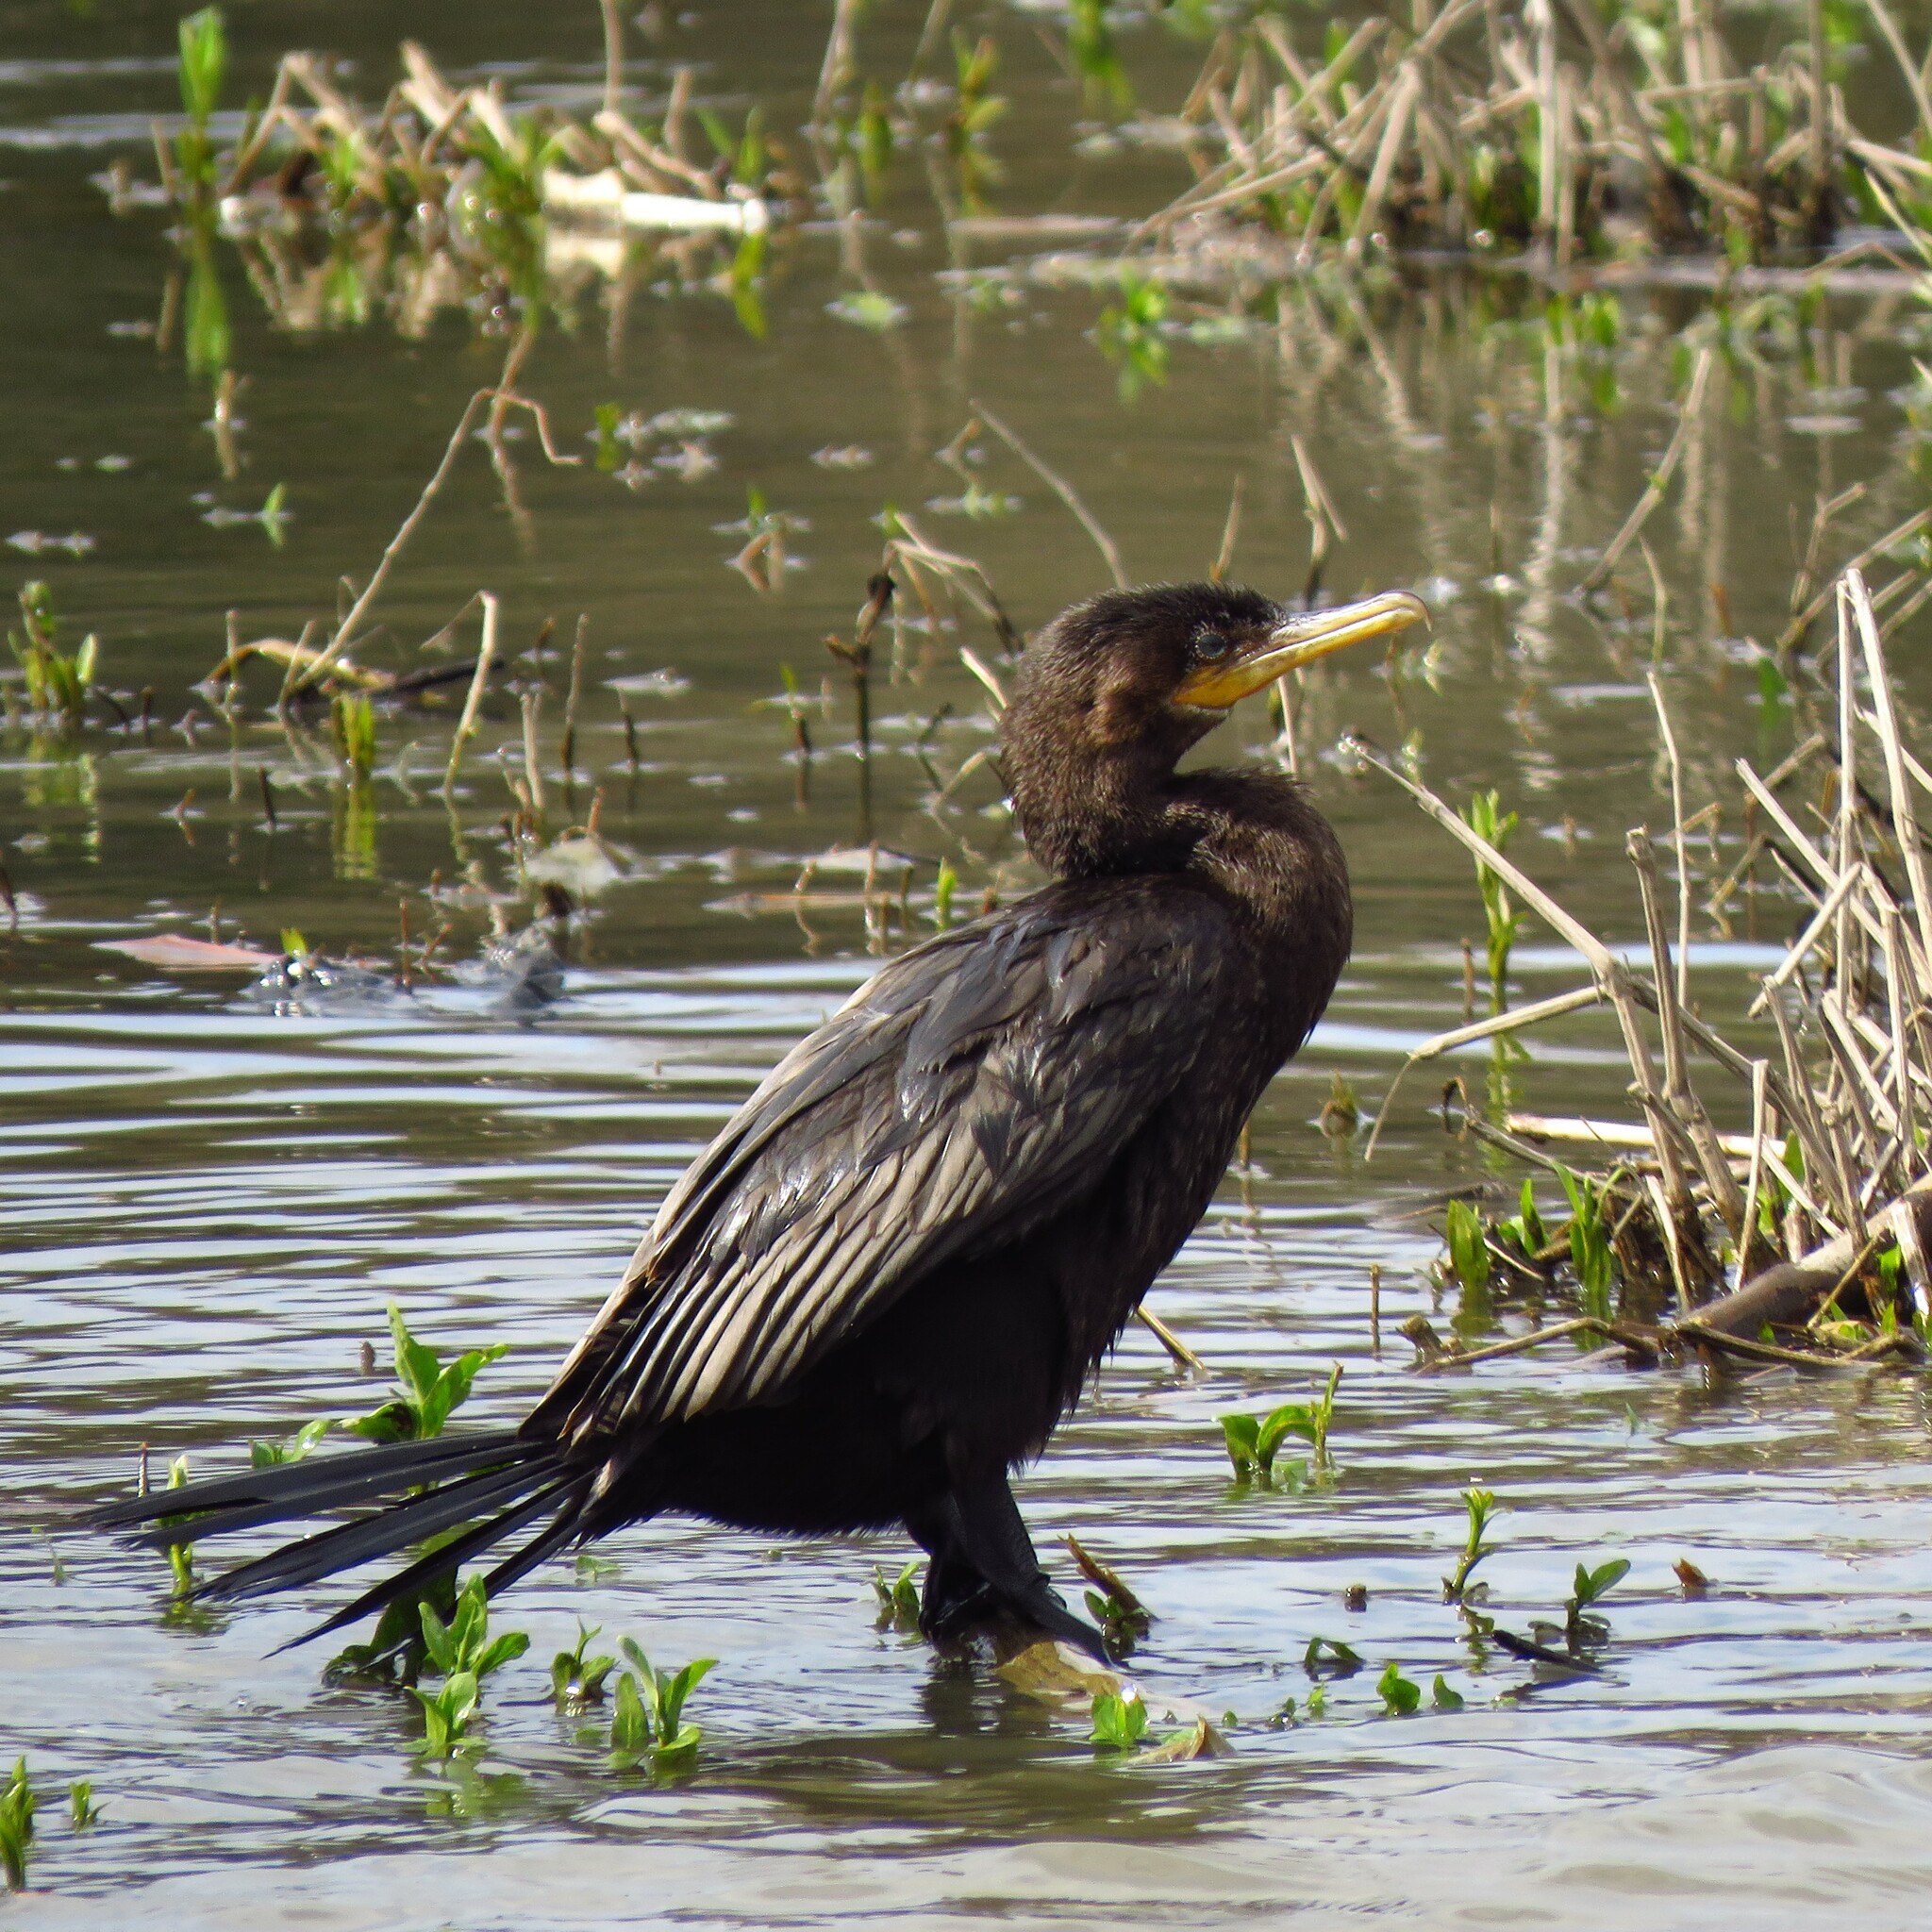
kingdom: Animalia
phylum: Chordata
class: Aves
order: Suliformes
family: Phalacrocoracidae
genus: Phalacrocorax
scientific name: Phalacrocorax brasilianus
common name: Neotropic cormorant
